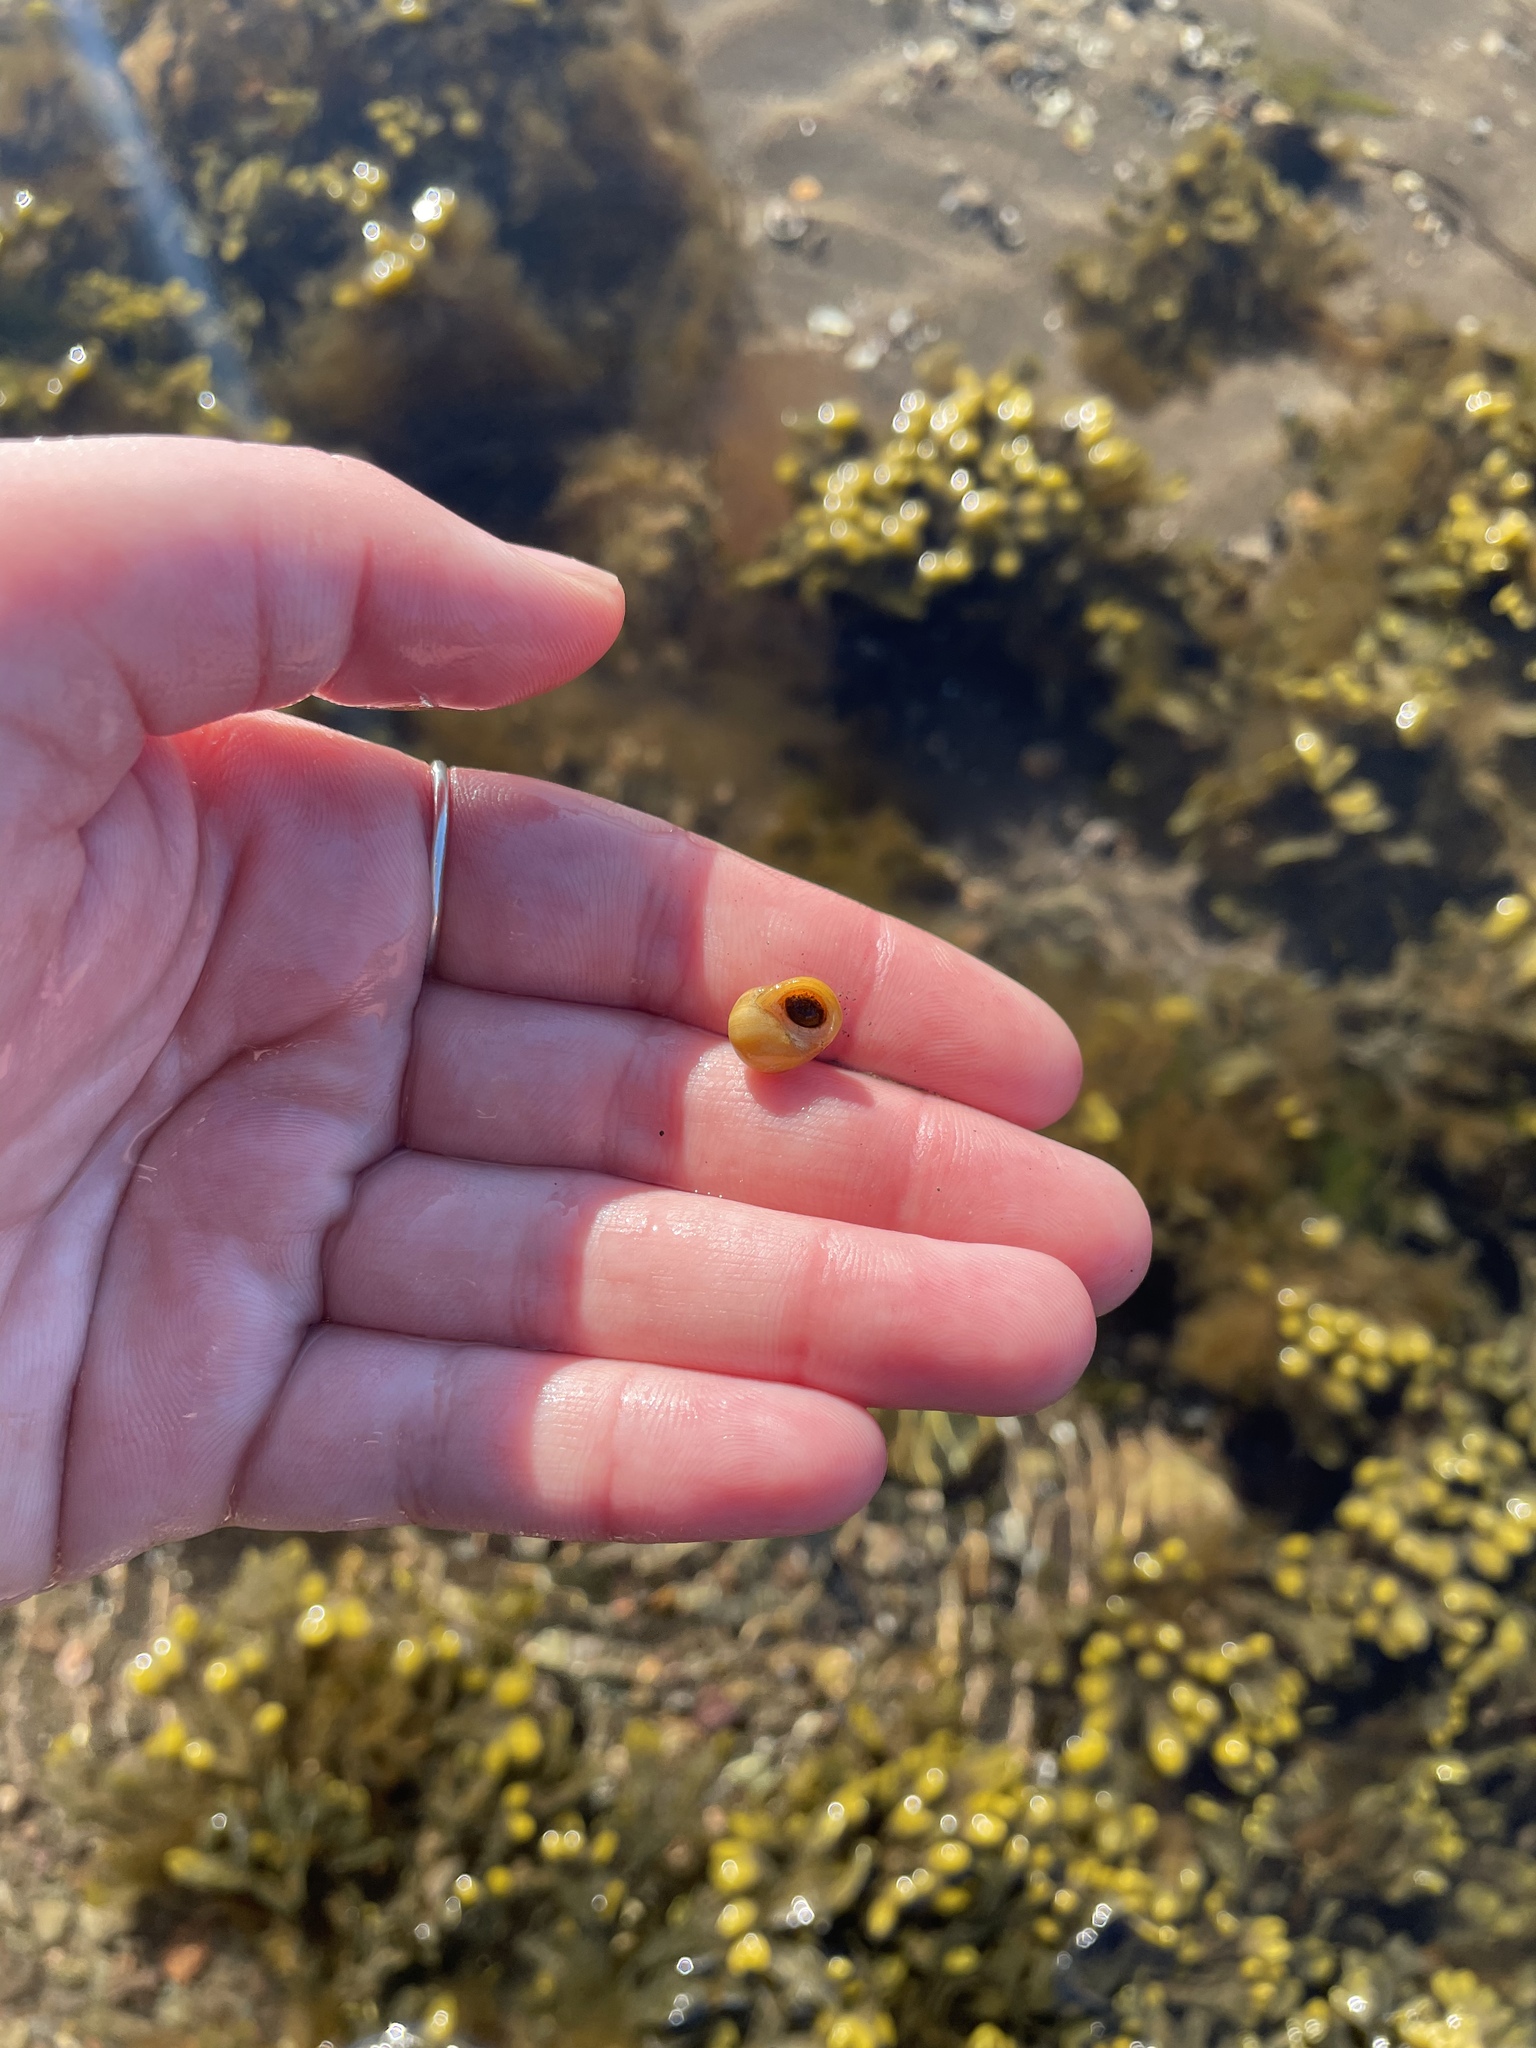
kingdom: Animalia
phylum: Mollusca
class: Gastropoda
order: Littorinimorpha
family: Littorinidae
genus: Littorina
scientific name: Littorina obtusata
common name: Flat periwinkle
